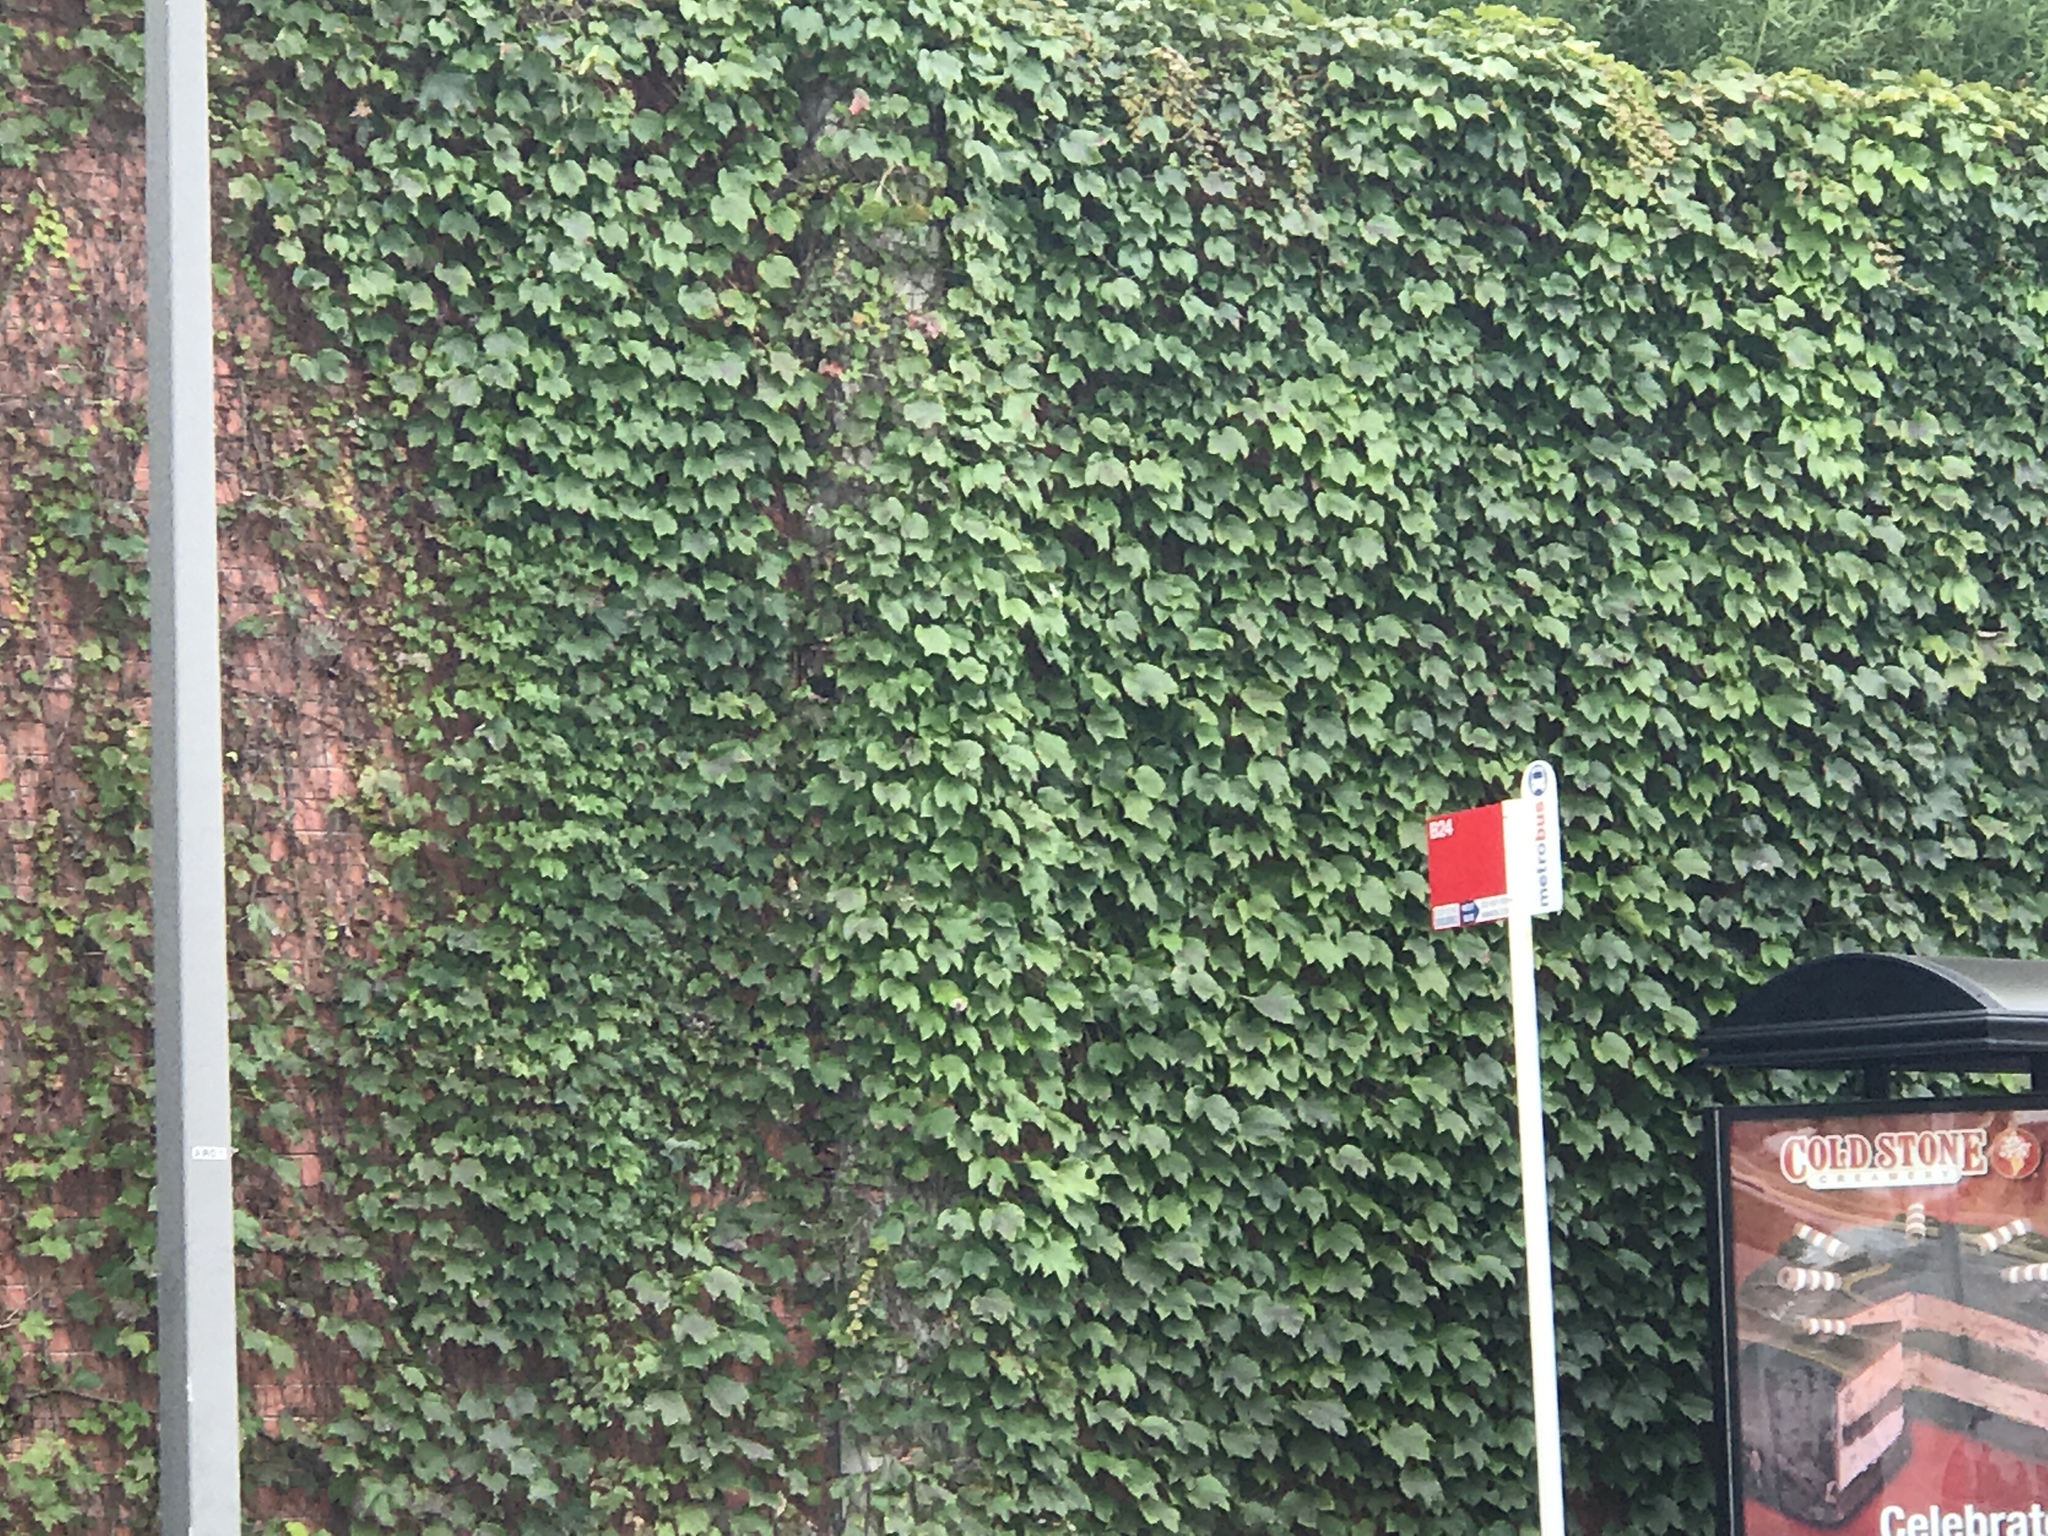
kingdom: Plantae
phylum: Tracheophyta
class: Magnoliopsida
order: Vitales
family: Vitaceae
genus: Parthenocissus
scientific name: Parthenocissus tricuspidata
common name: Boston ivy
